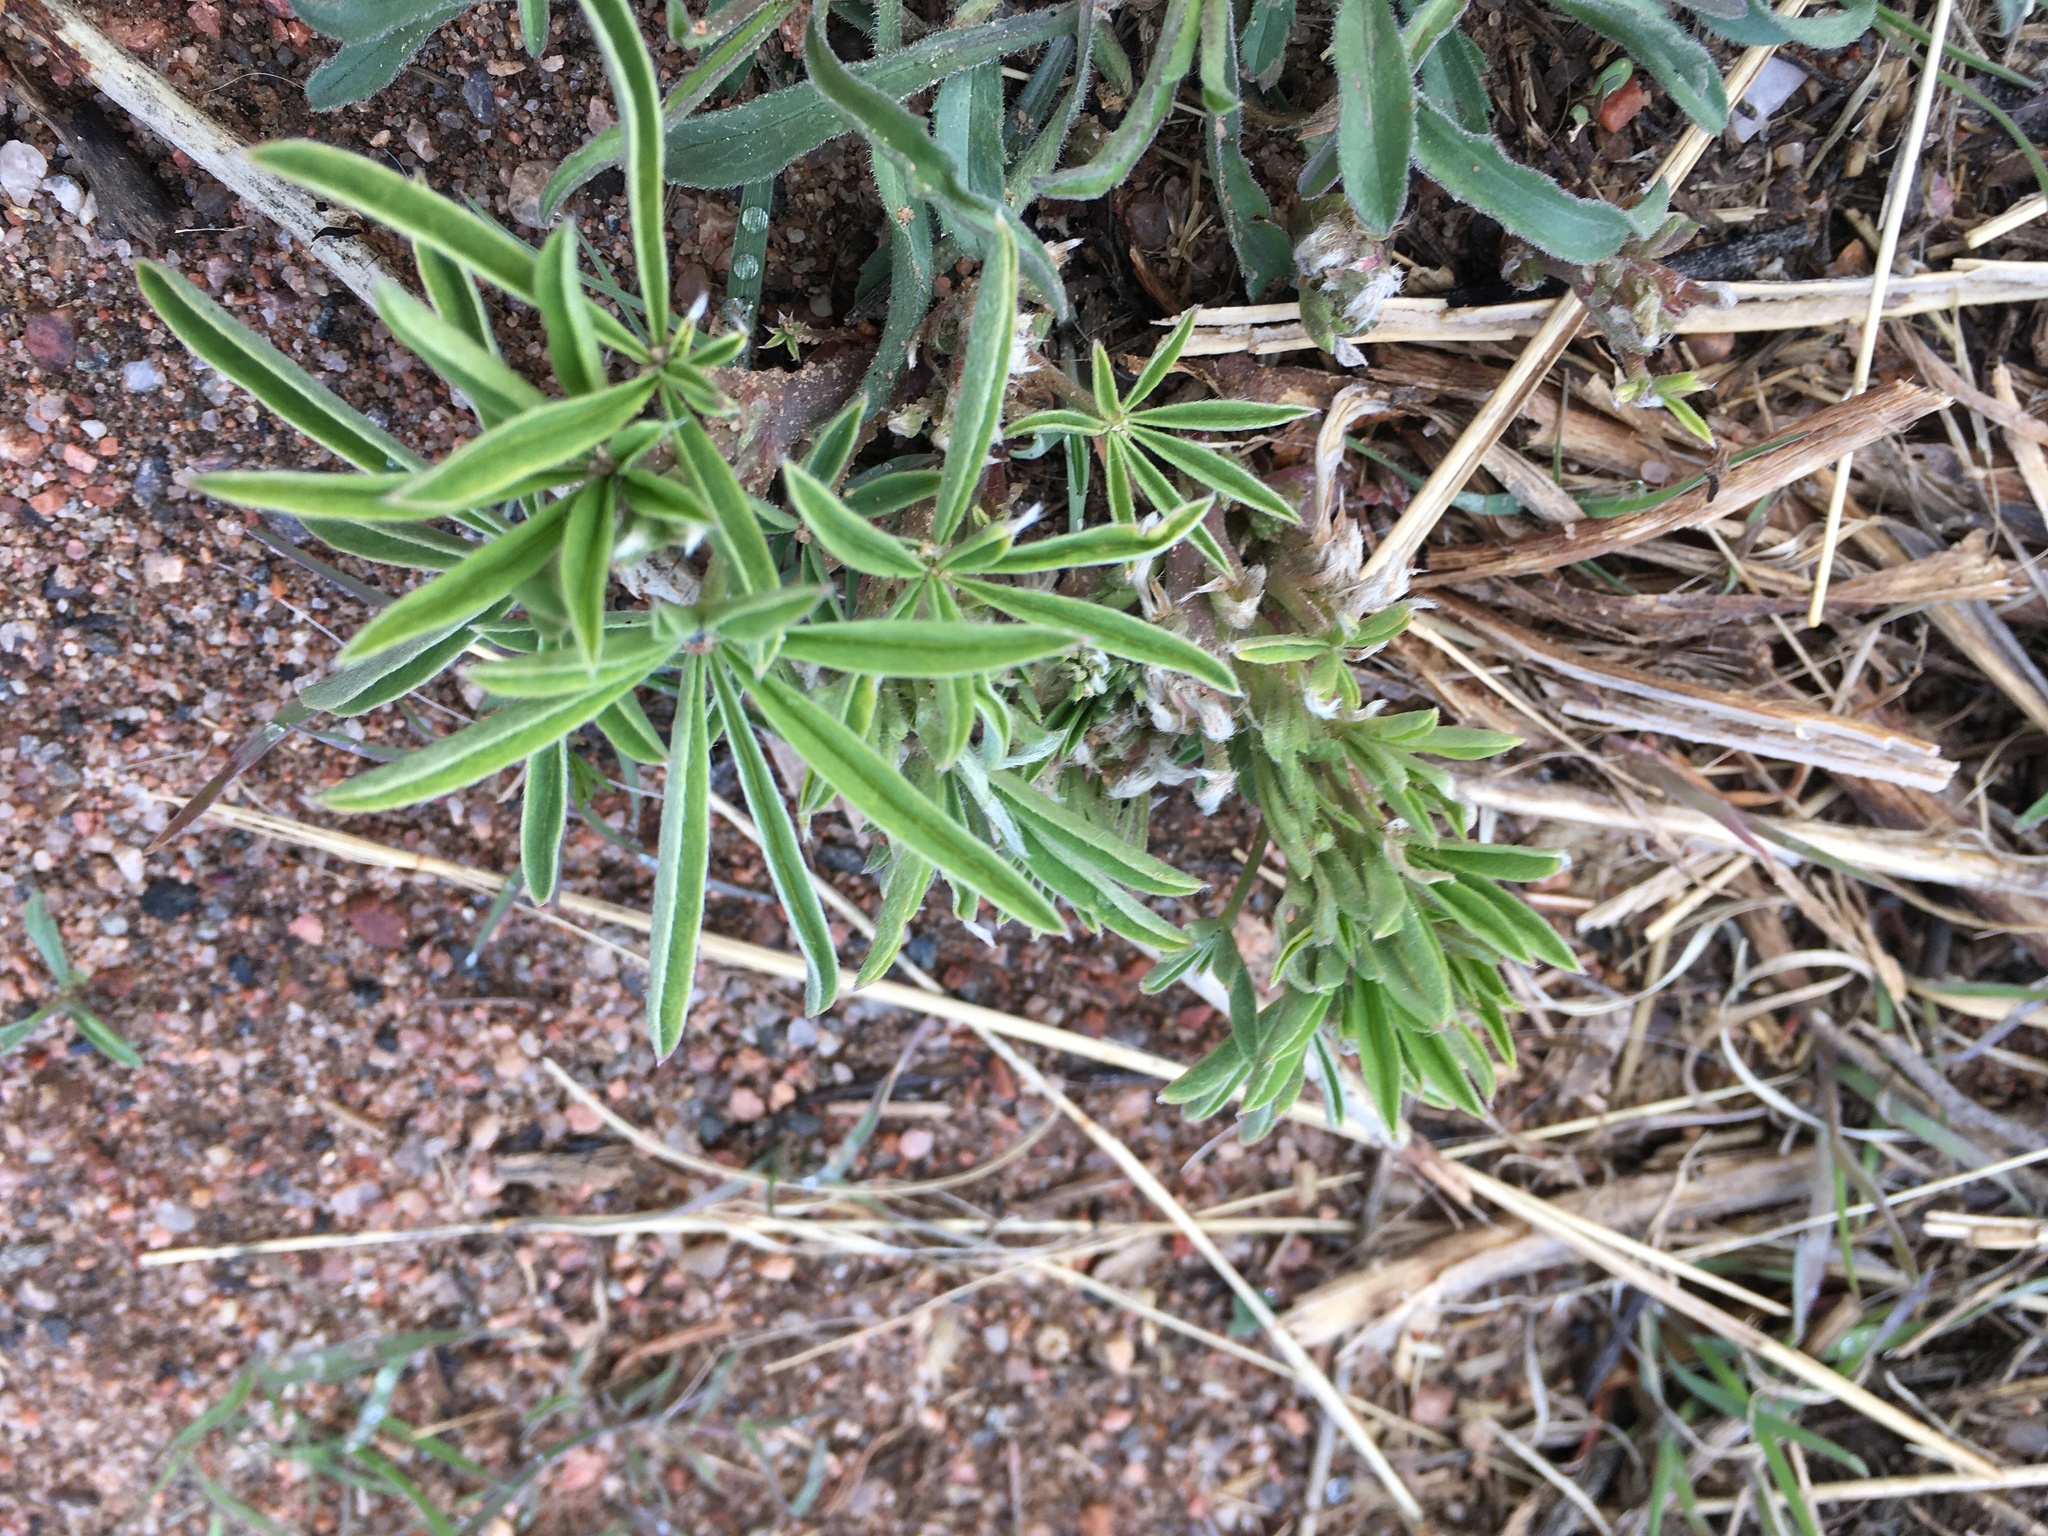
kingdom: Plantae
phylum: Tracheophyta
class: Magnoliopsida
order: Fabales
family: Fabaceae
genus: Lupinus
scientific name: Lupinus argenteus
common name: Silvery lupine
